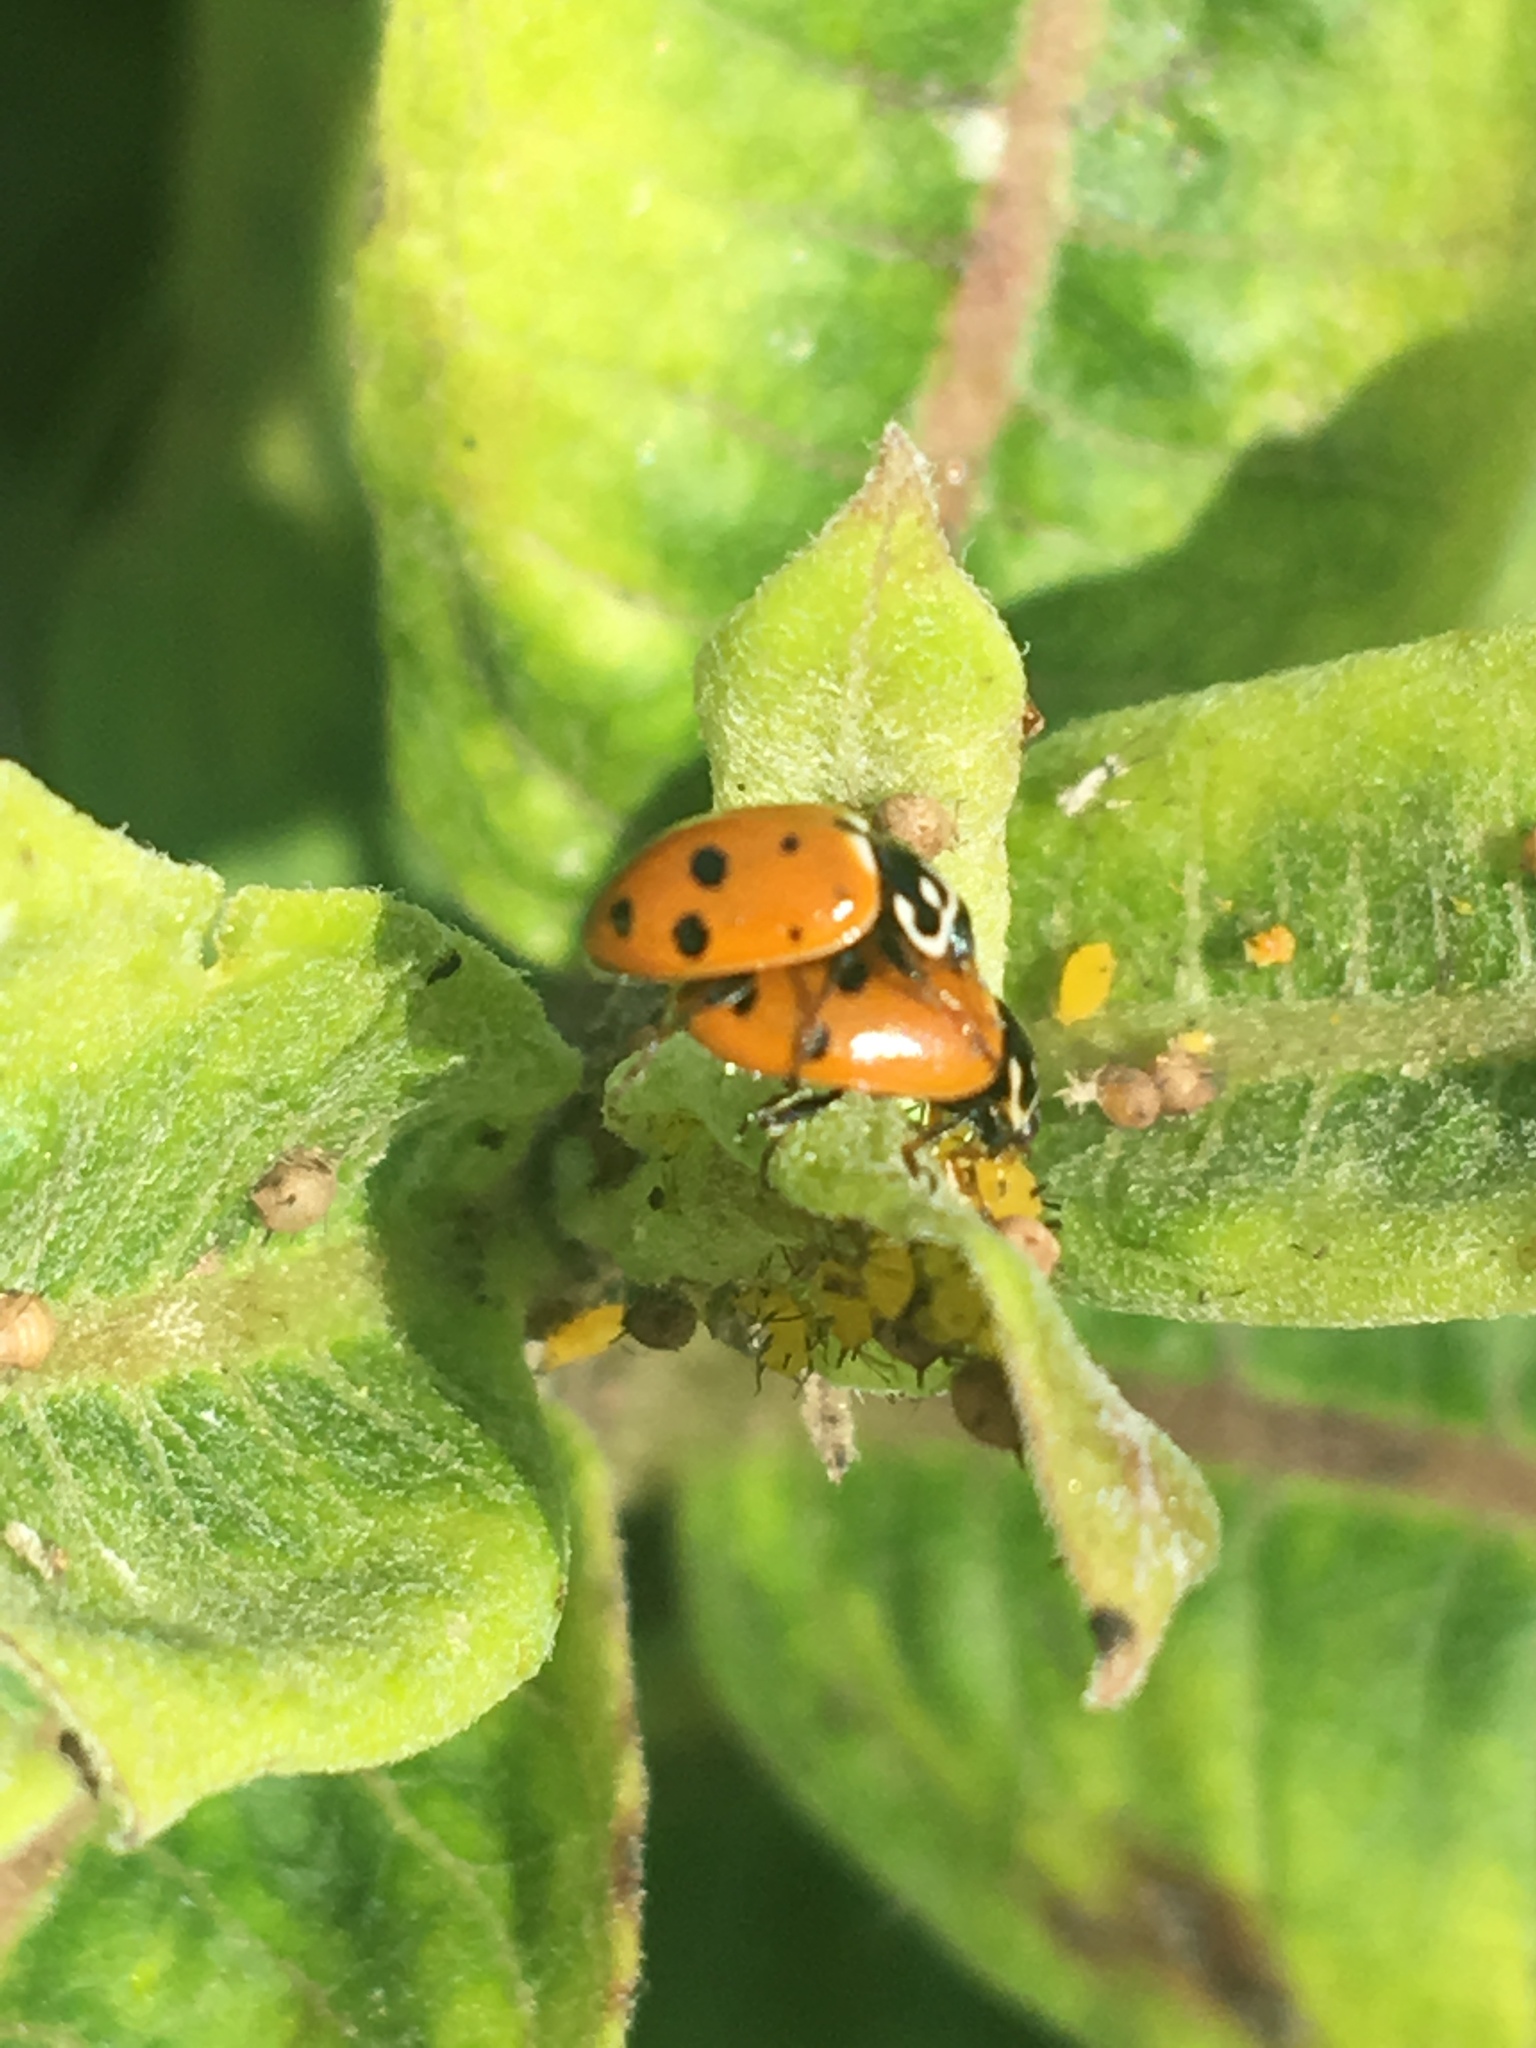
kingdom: Animalia
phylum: Arthropoda
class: Insecta
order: Coleoptera
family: Coccinellidae
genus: Hippodamia
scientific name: Hippodamia variegata
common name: Ladybird beetle
